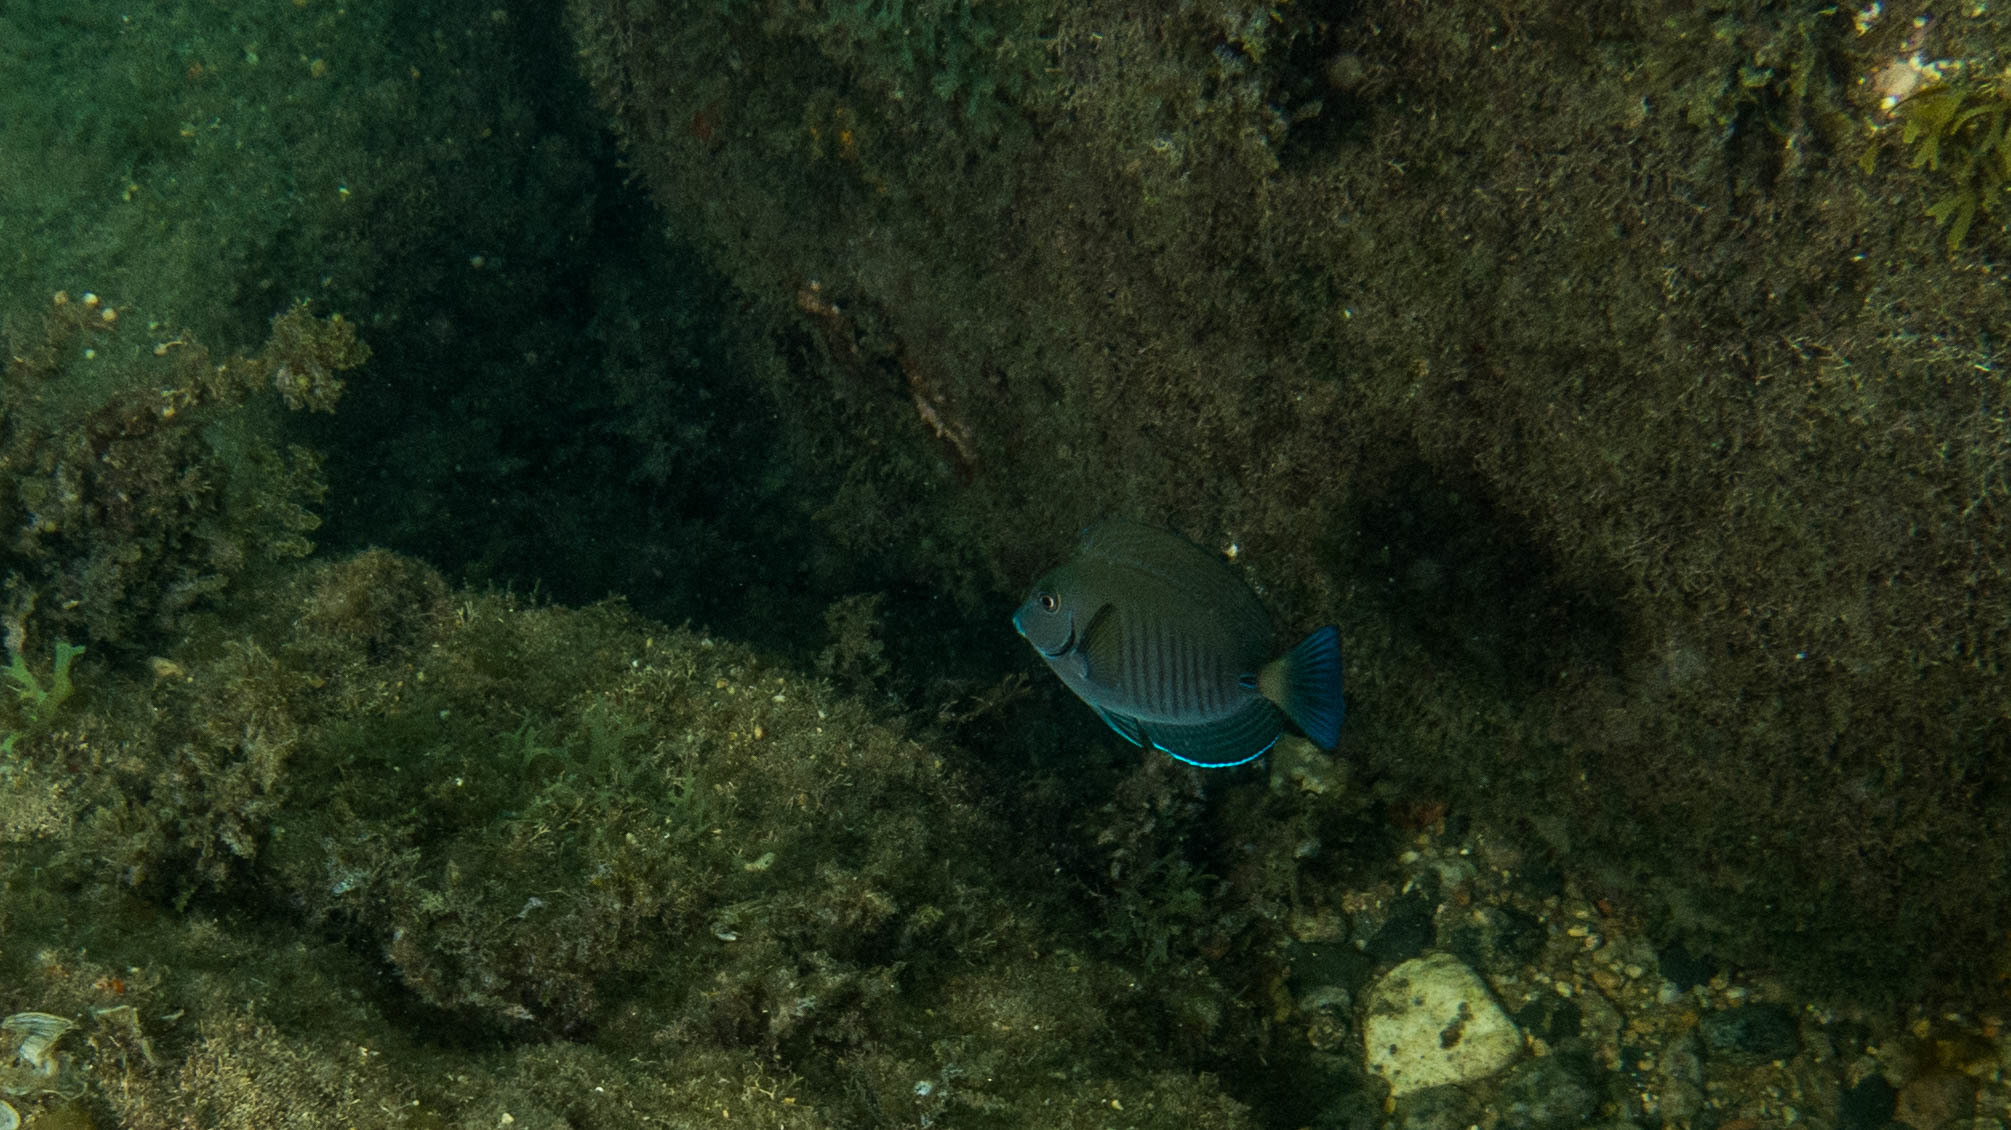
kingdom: Animalia
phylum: Chordata
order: Perciformes
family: Acanthuridae
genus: Acanthurus
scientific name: Acanthurus chirurgus
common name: Doctorfish
